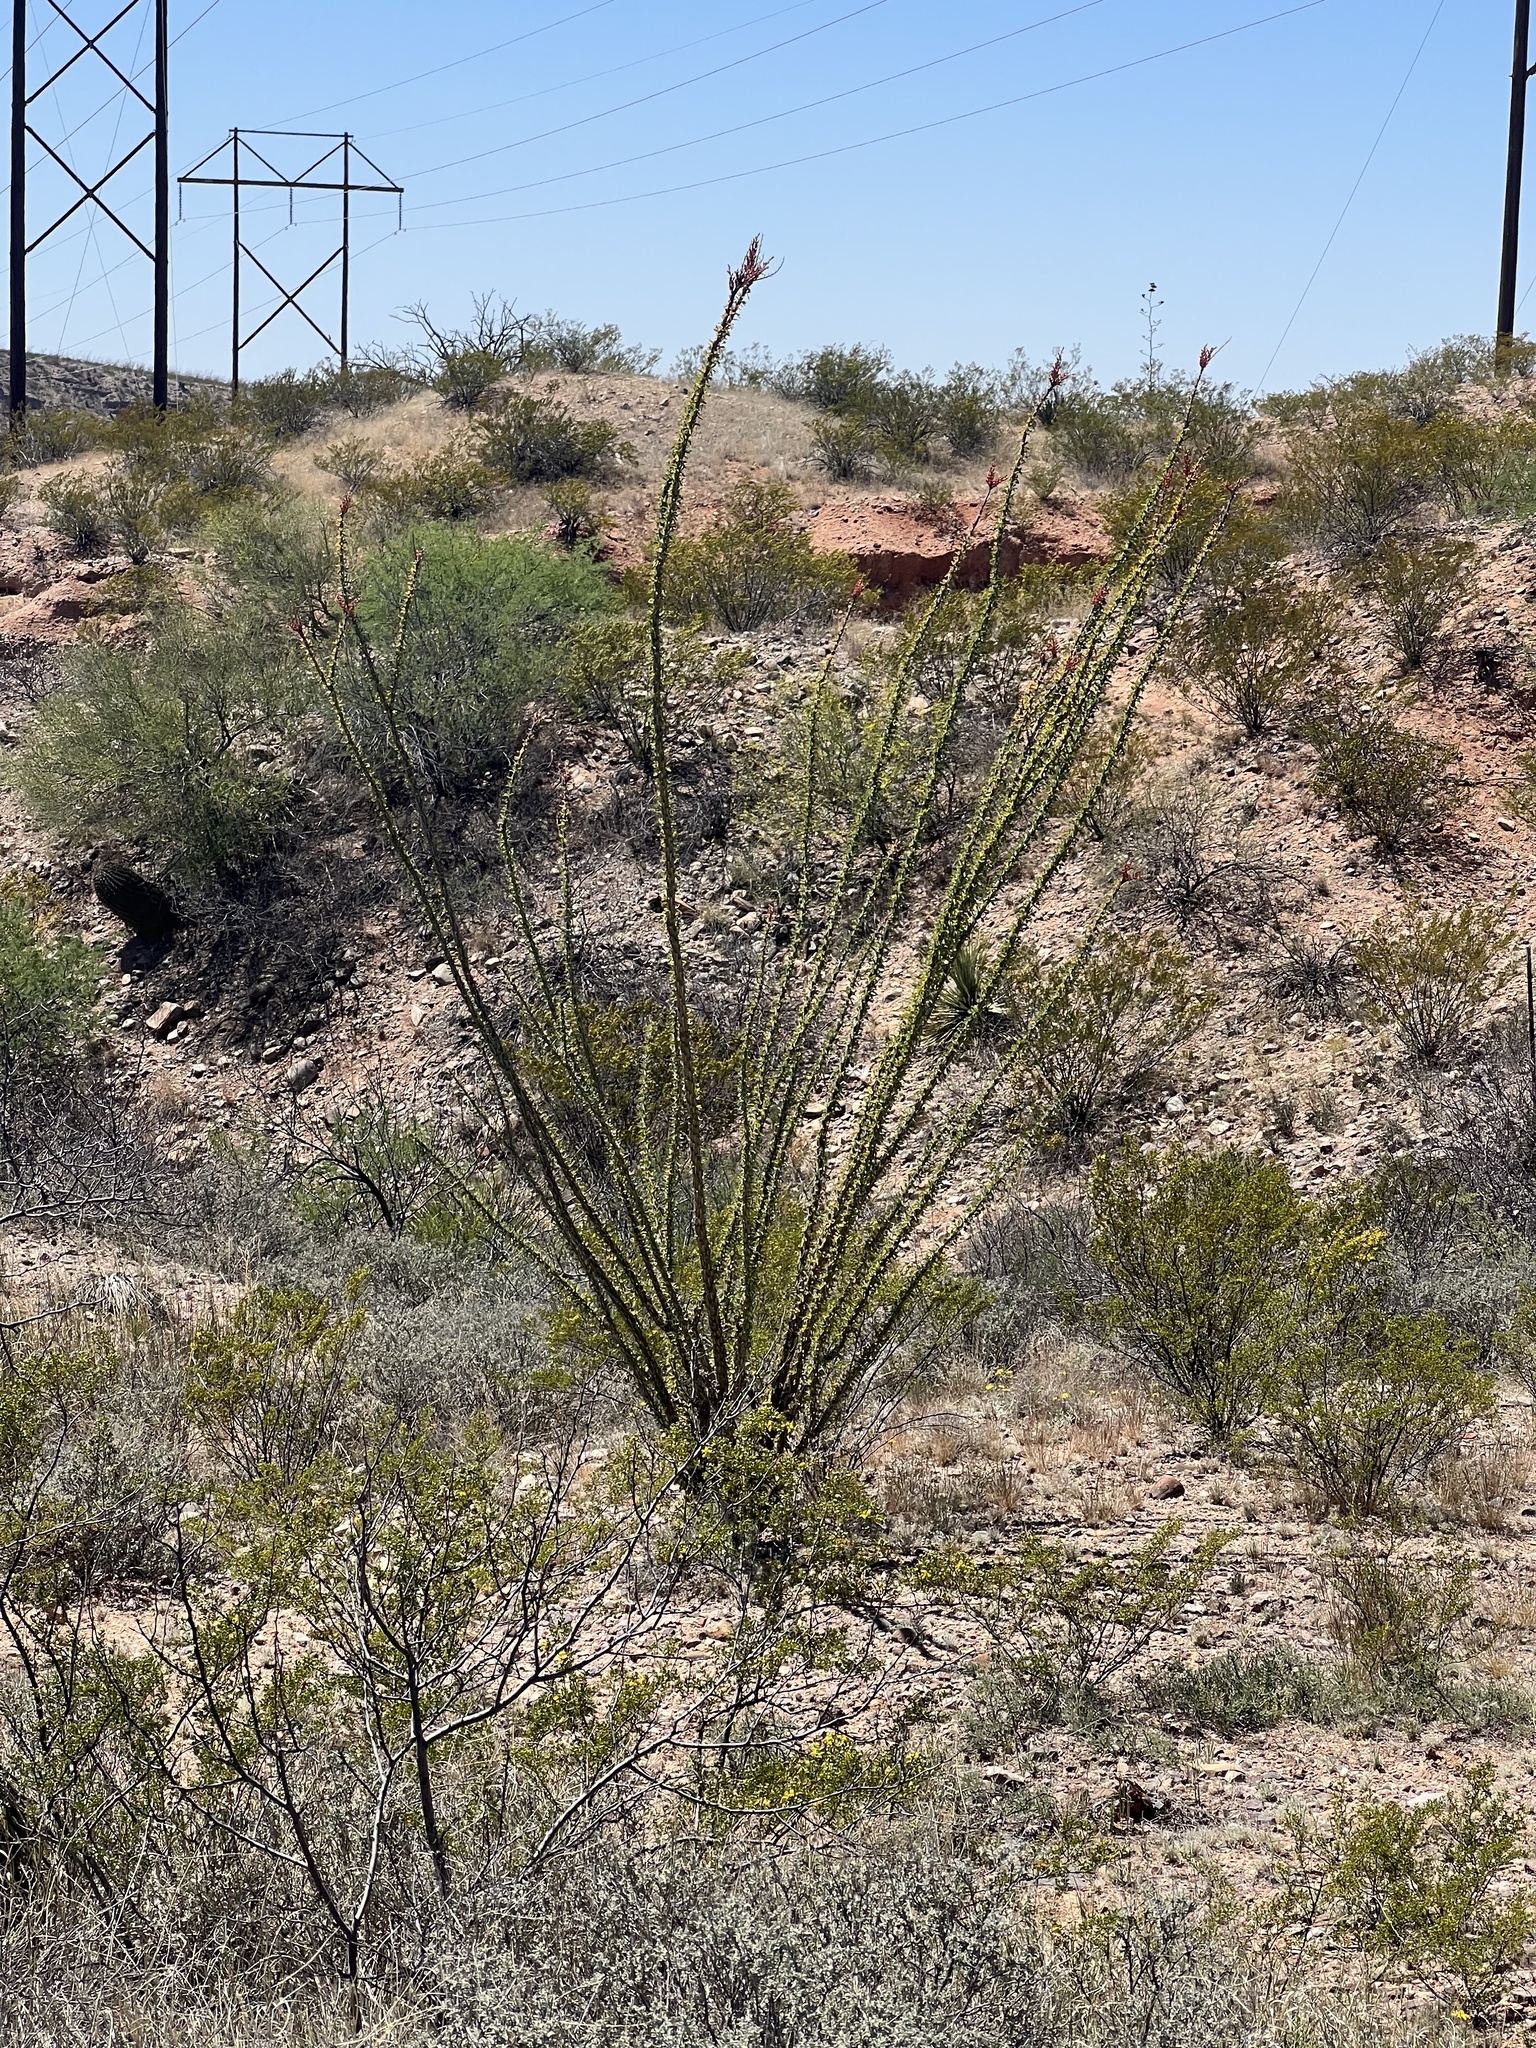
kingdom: Plantae
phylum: Tracheophyta
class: Magnoliopsida
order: Ericales
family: Fouquieriaceae
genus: Fouquieria
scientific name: Fouquieria splendens
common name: Vine-cactus
